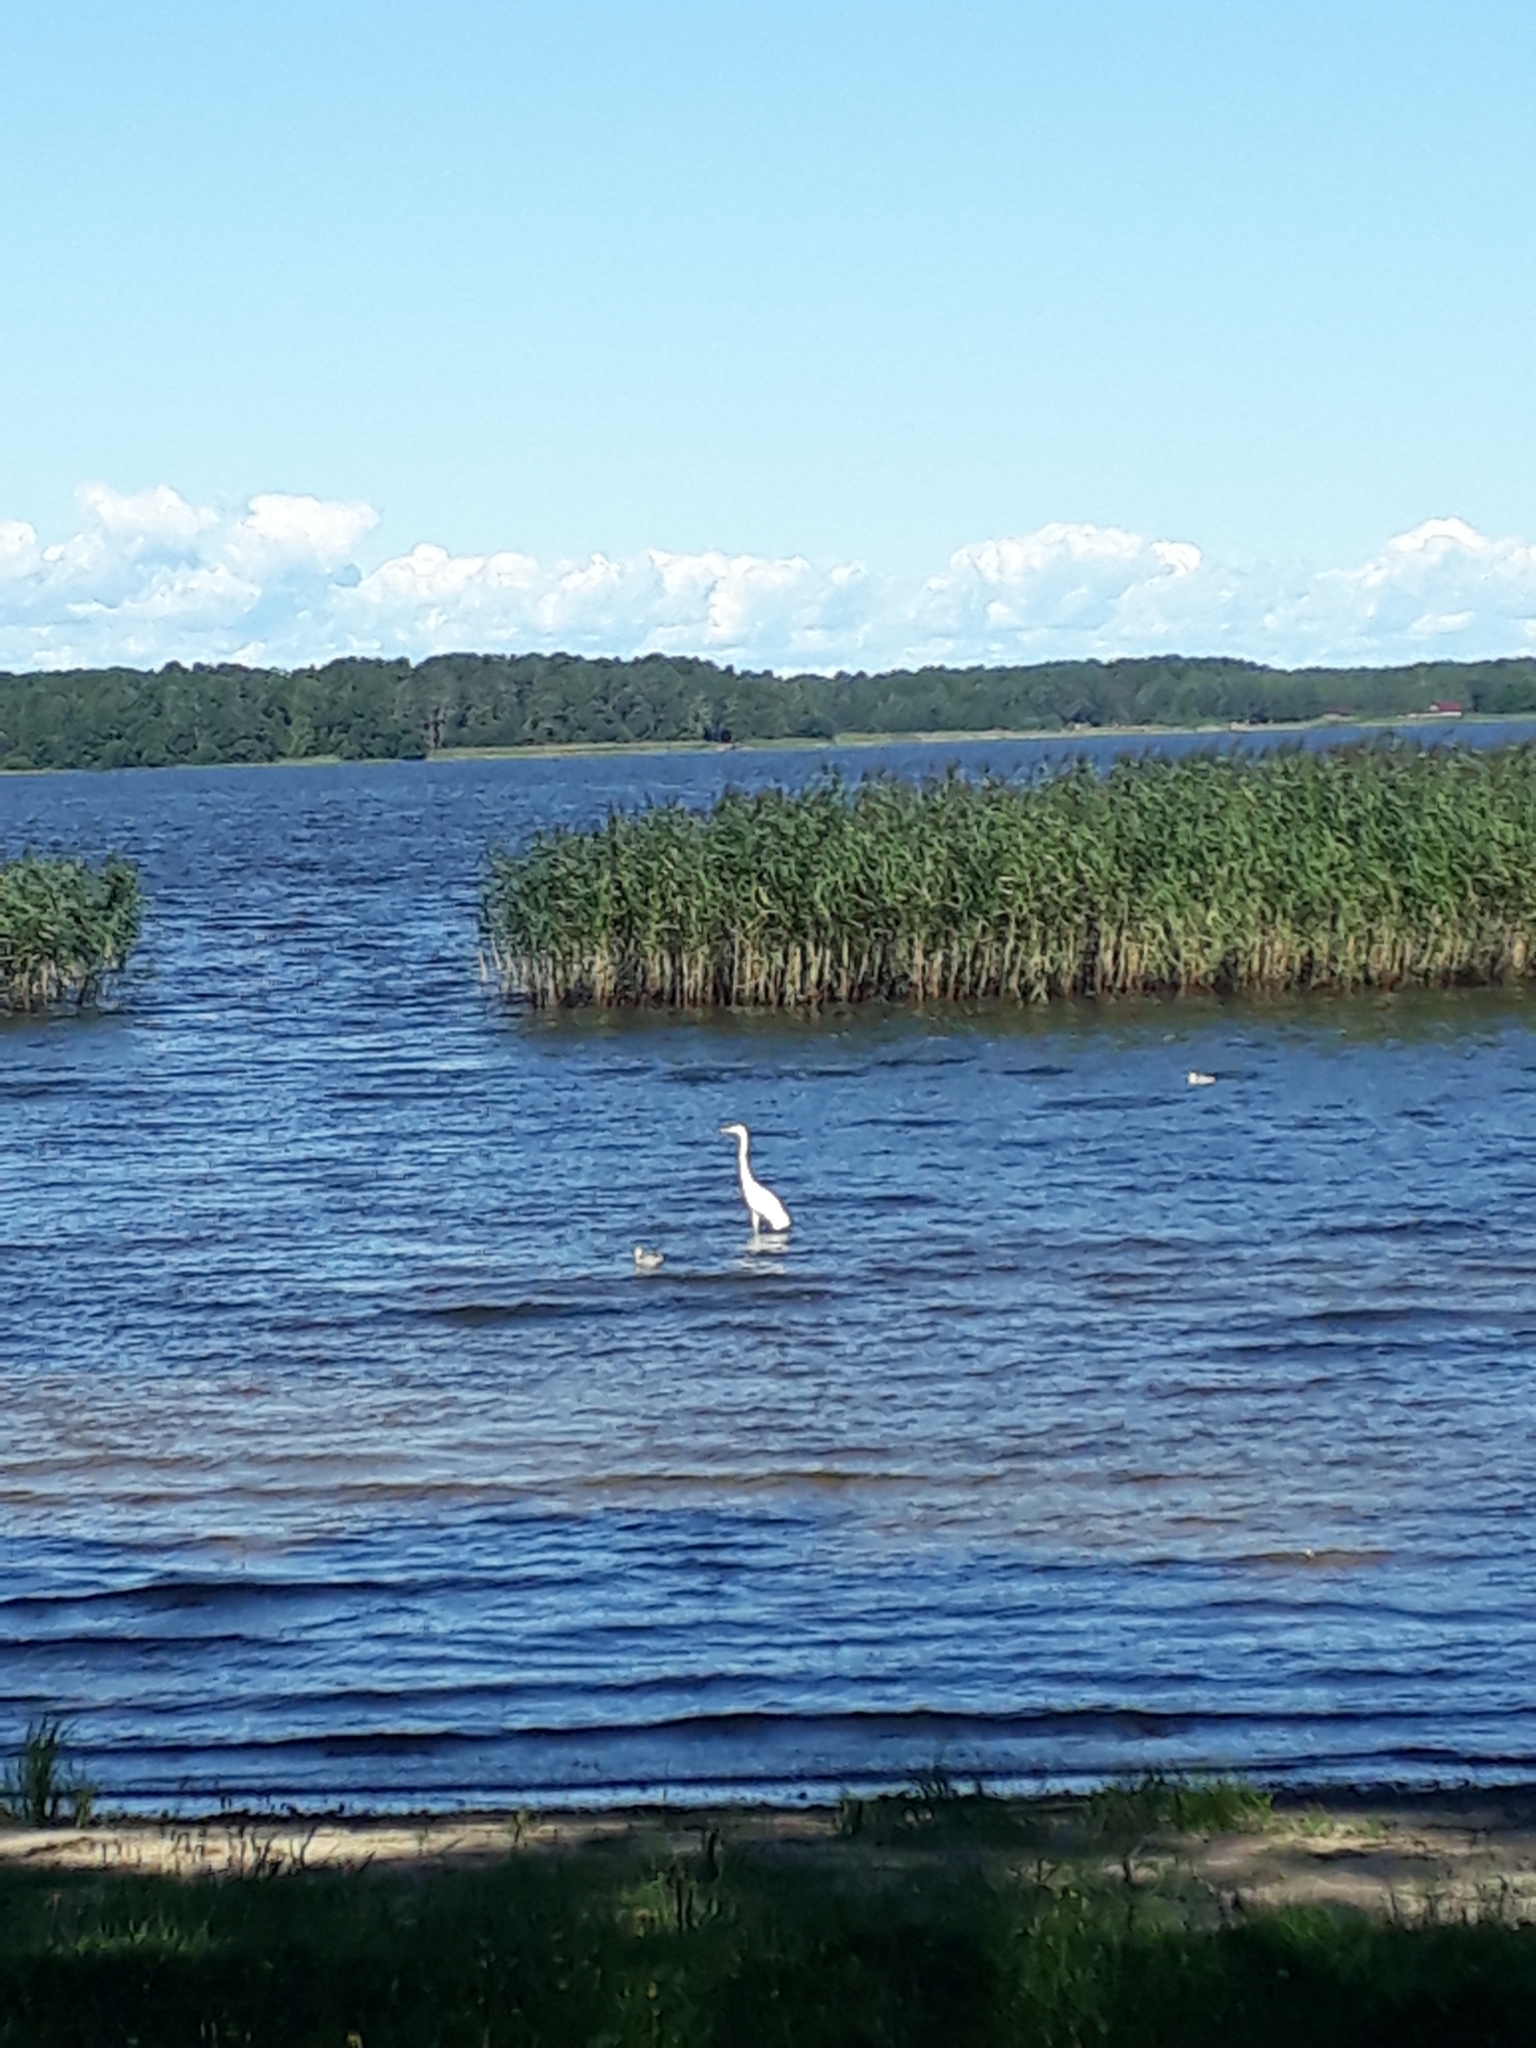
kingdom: Animalia
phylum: Chordata
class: Aves
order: Pelecaniformes
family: Ardeidae
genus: Ardea
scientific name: Ardea alba
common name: Great egret
